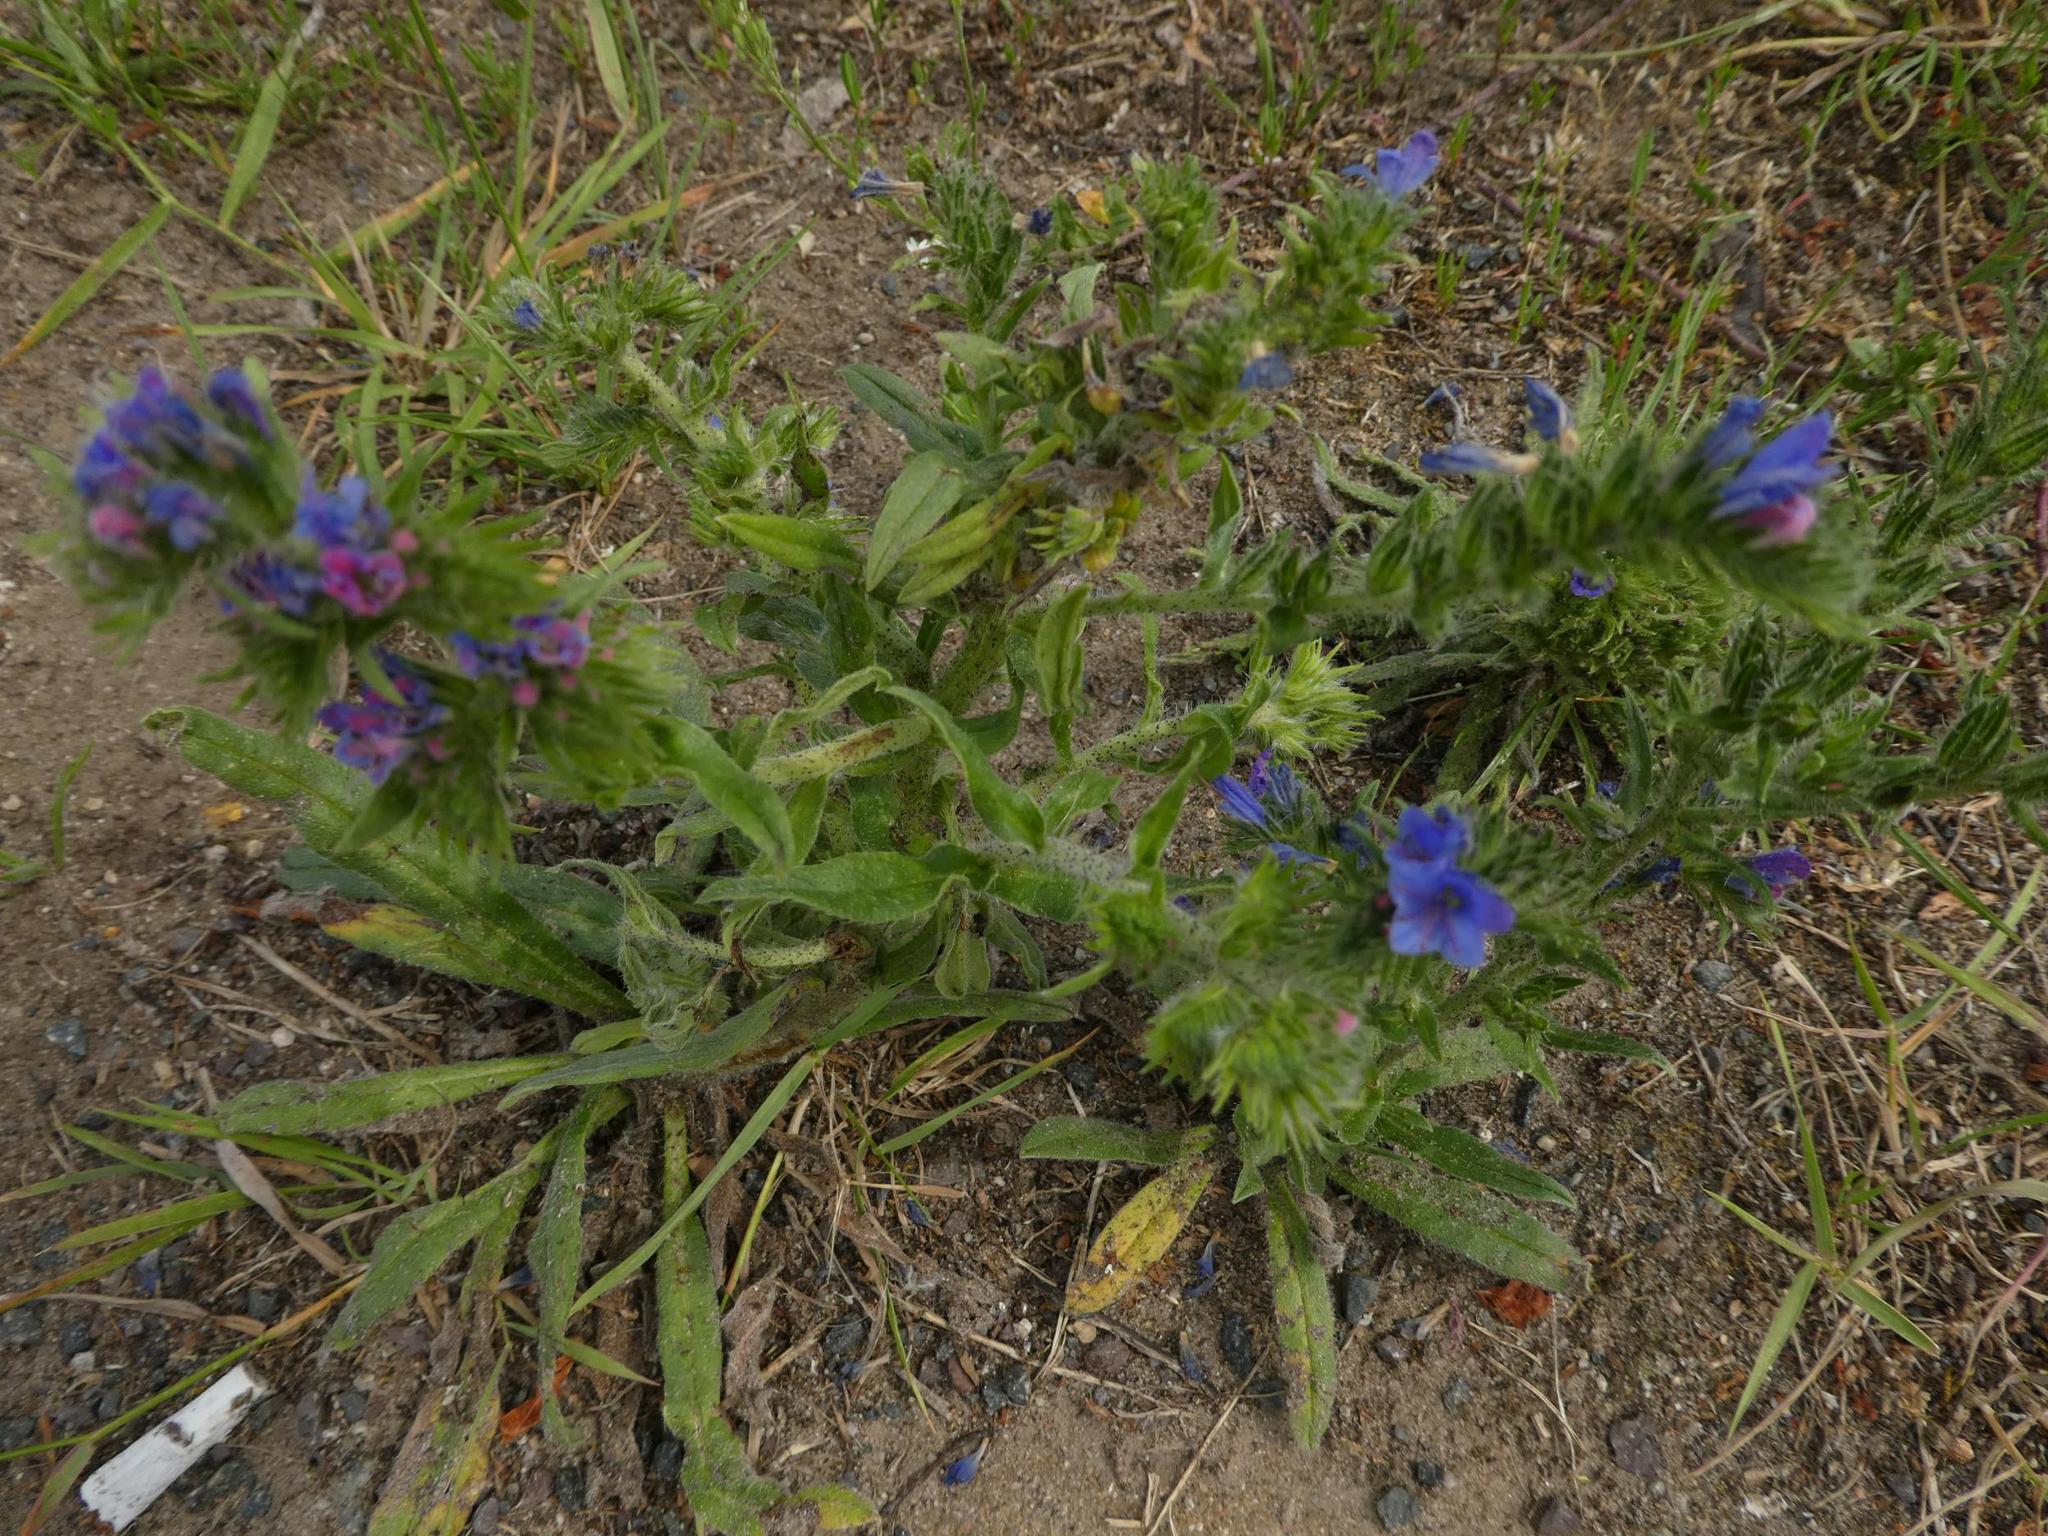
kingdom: Plantae
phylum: Tracheophyta
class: Magnoliopsida
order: Boraginales
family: Boraginaceae
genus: Echium
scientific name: Echium vulgare
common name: Common viper's bugloss
